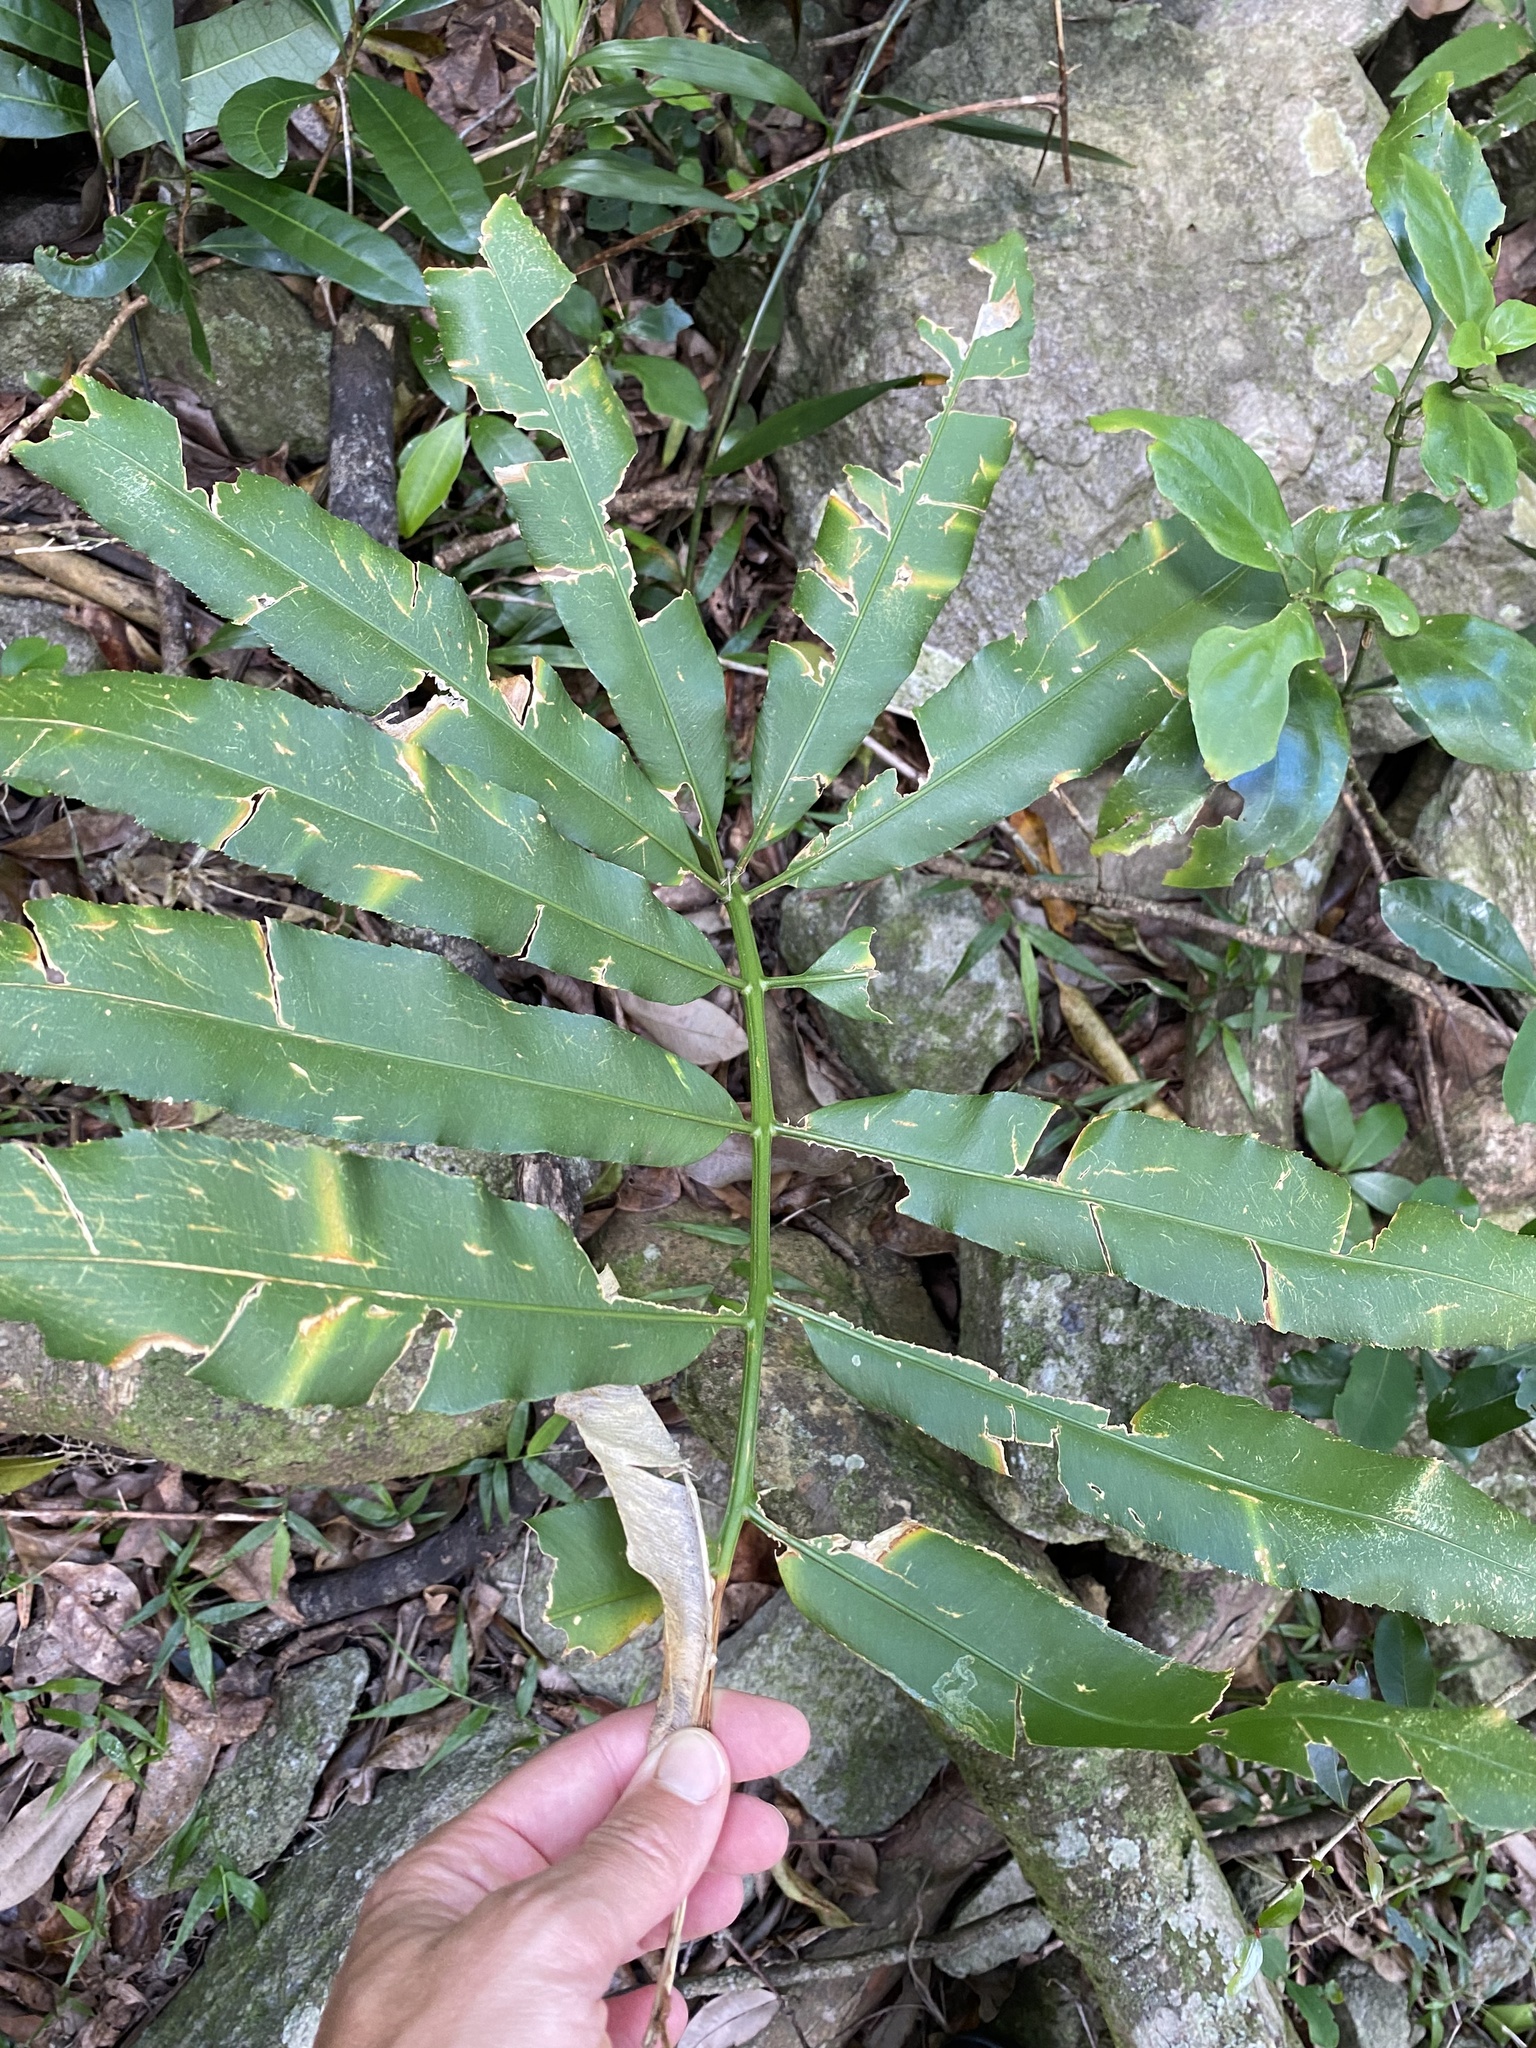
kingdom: Plantae
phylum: Tracheophyta
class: Cycadopsida
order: Cycadales
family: Zamiaceae
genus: Stangeria
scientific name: Stangeria eriopus
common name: Natal grass cycad
